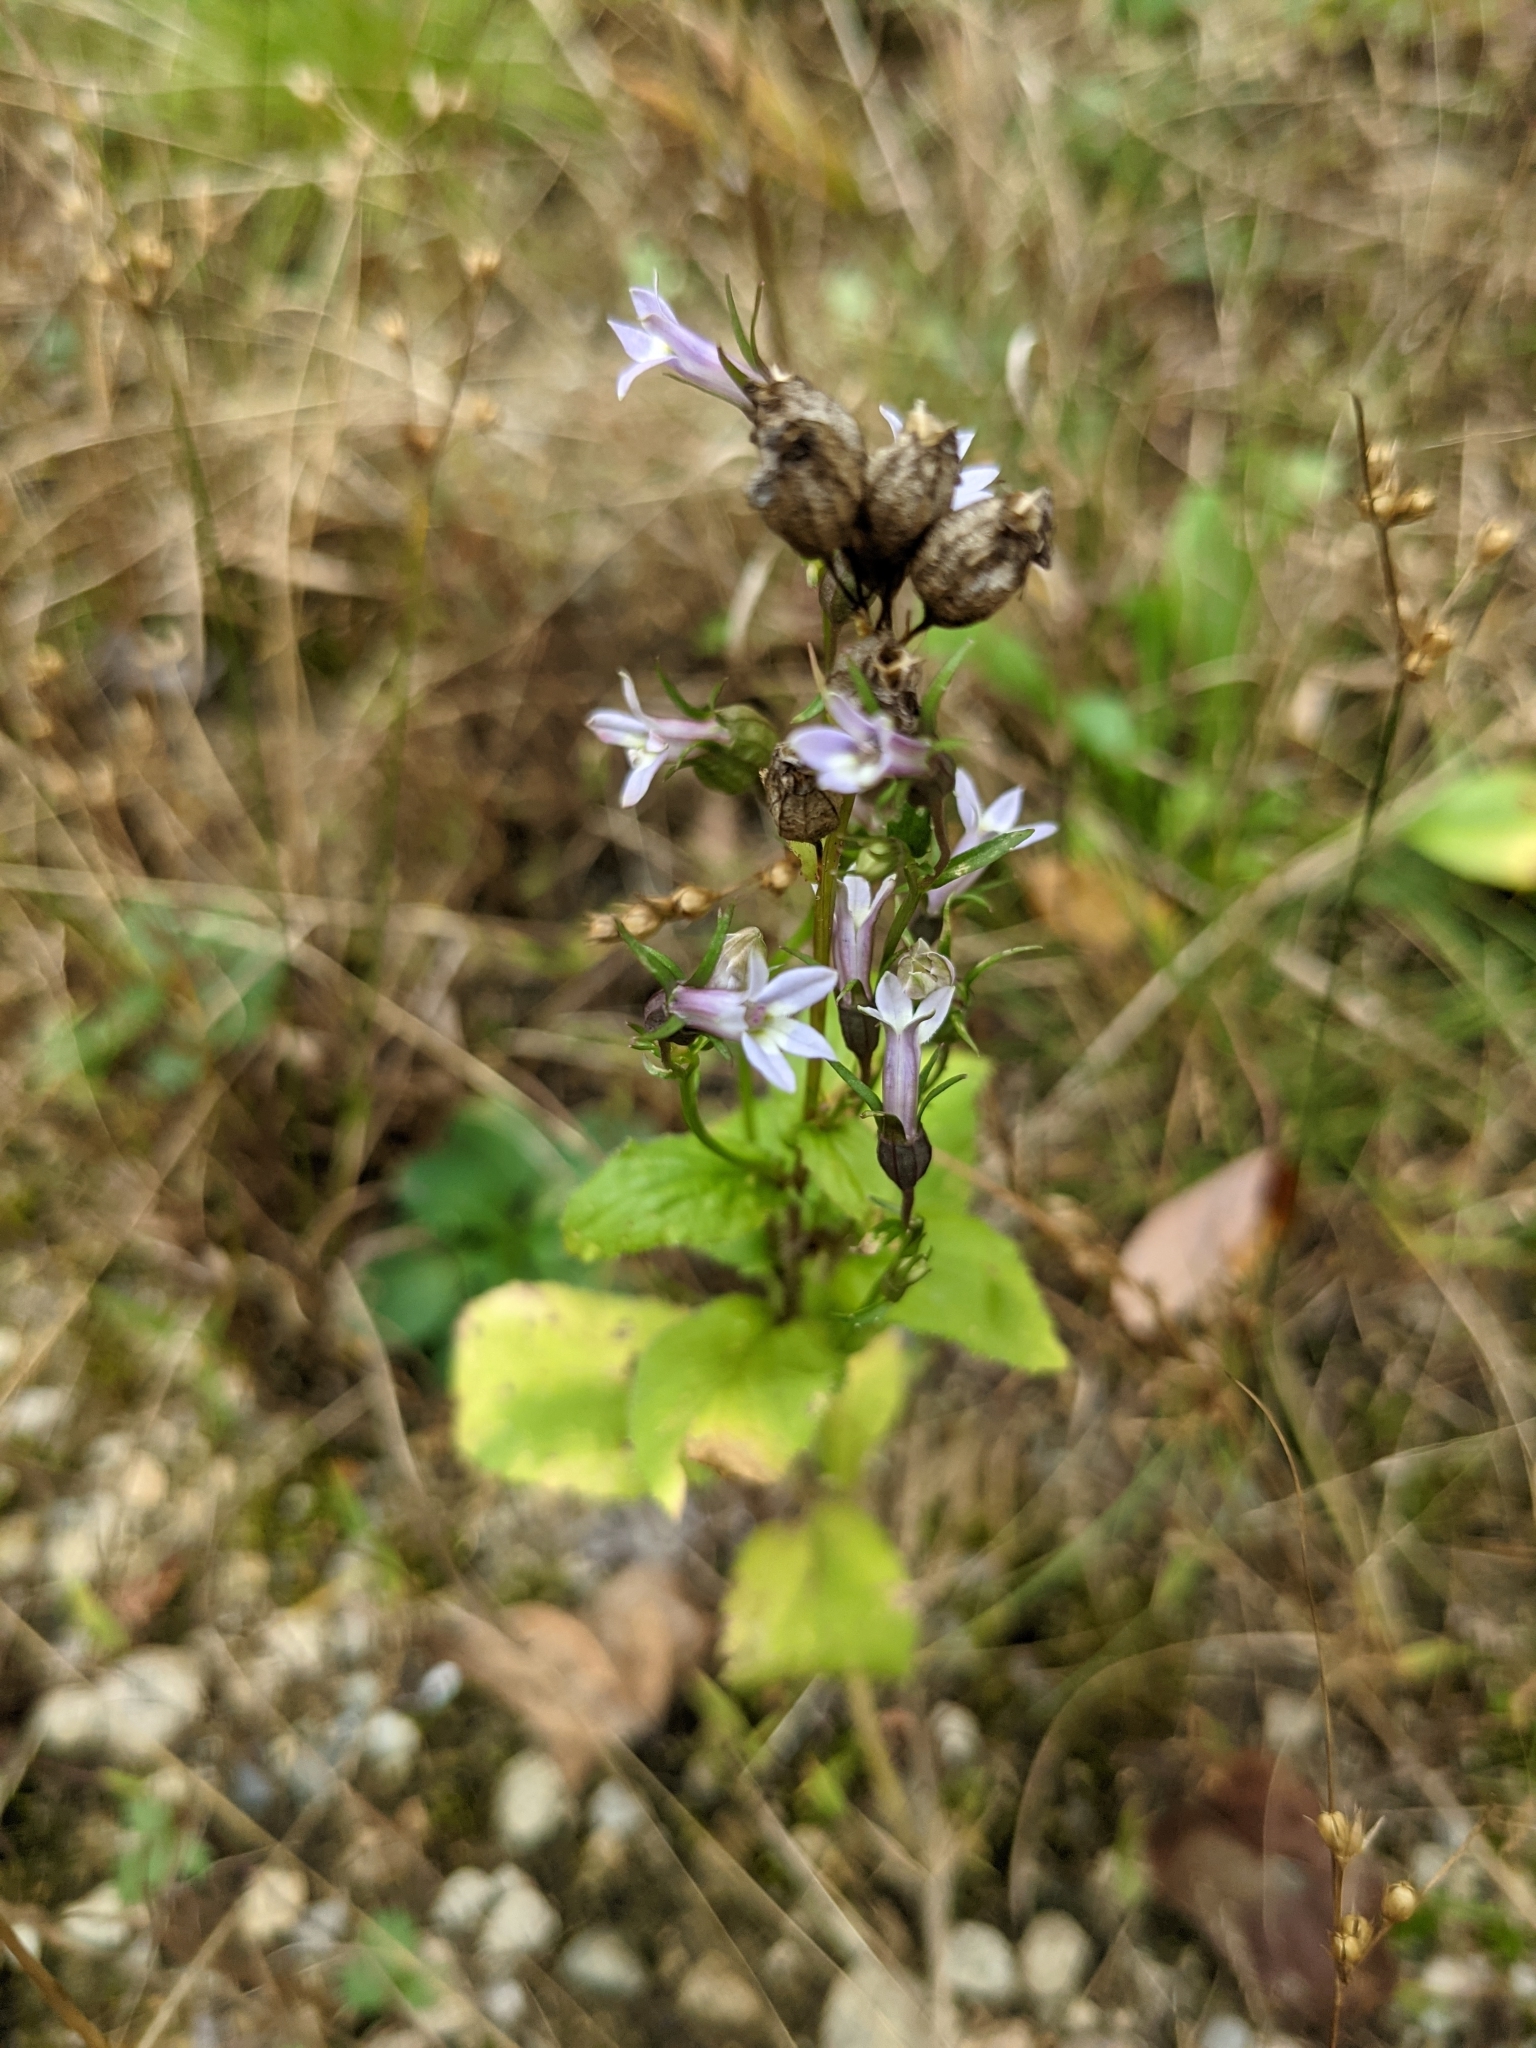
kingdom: Plantae
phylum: Tracheophyta
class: Magnoliopsida
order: Asterales
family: Campanulaceae
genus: Lobelia
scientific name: Lobelia inflata
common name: Indian tobacco
